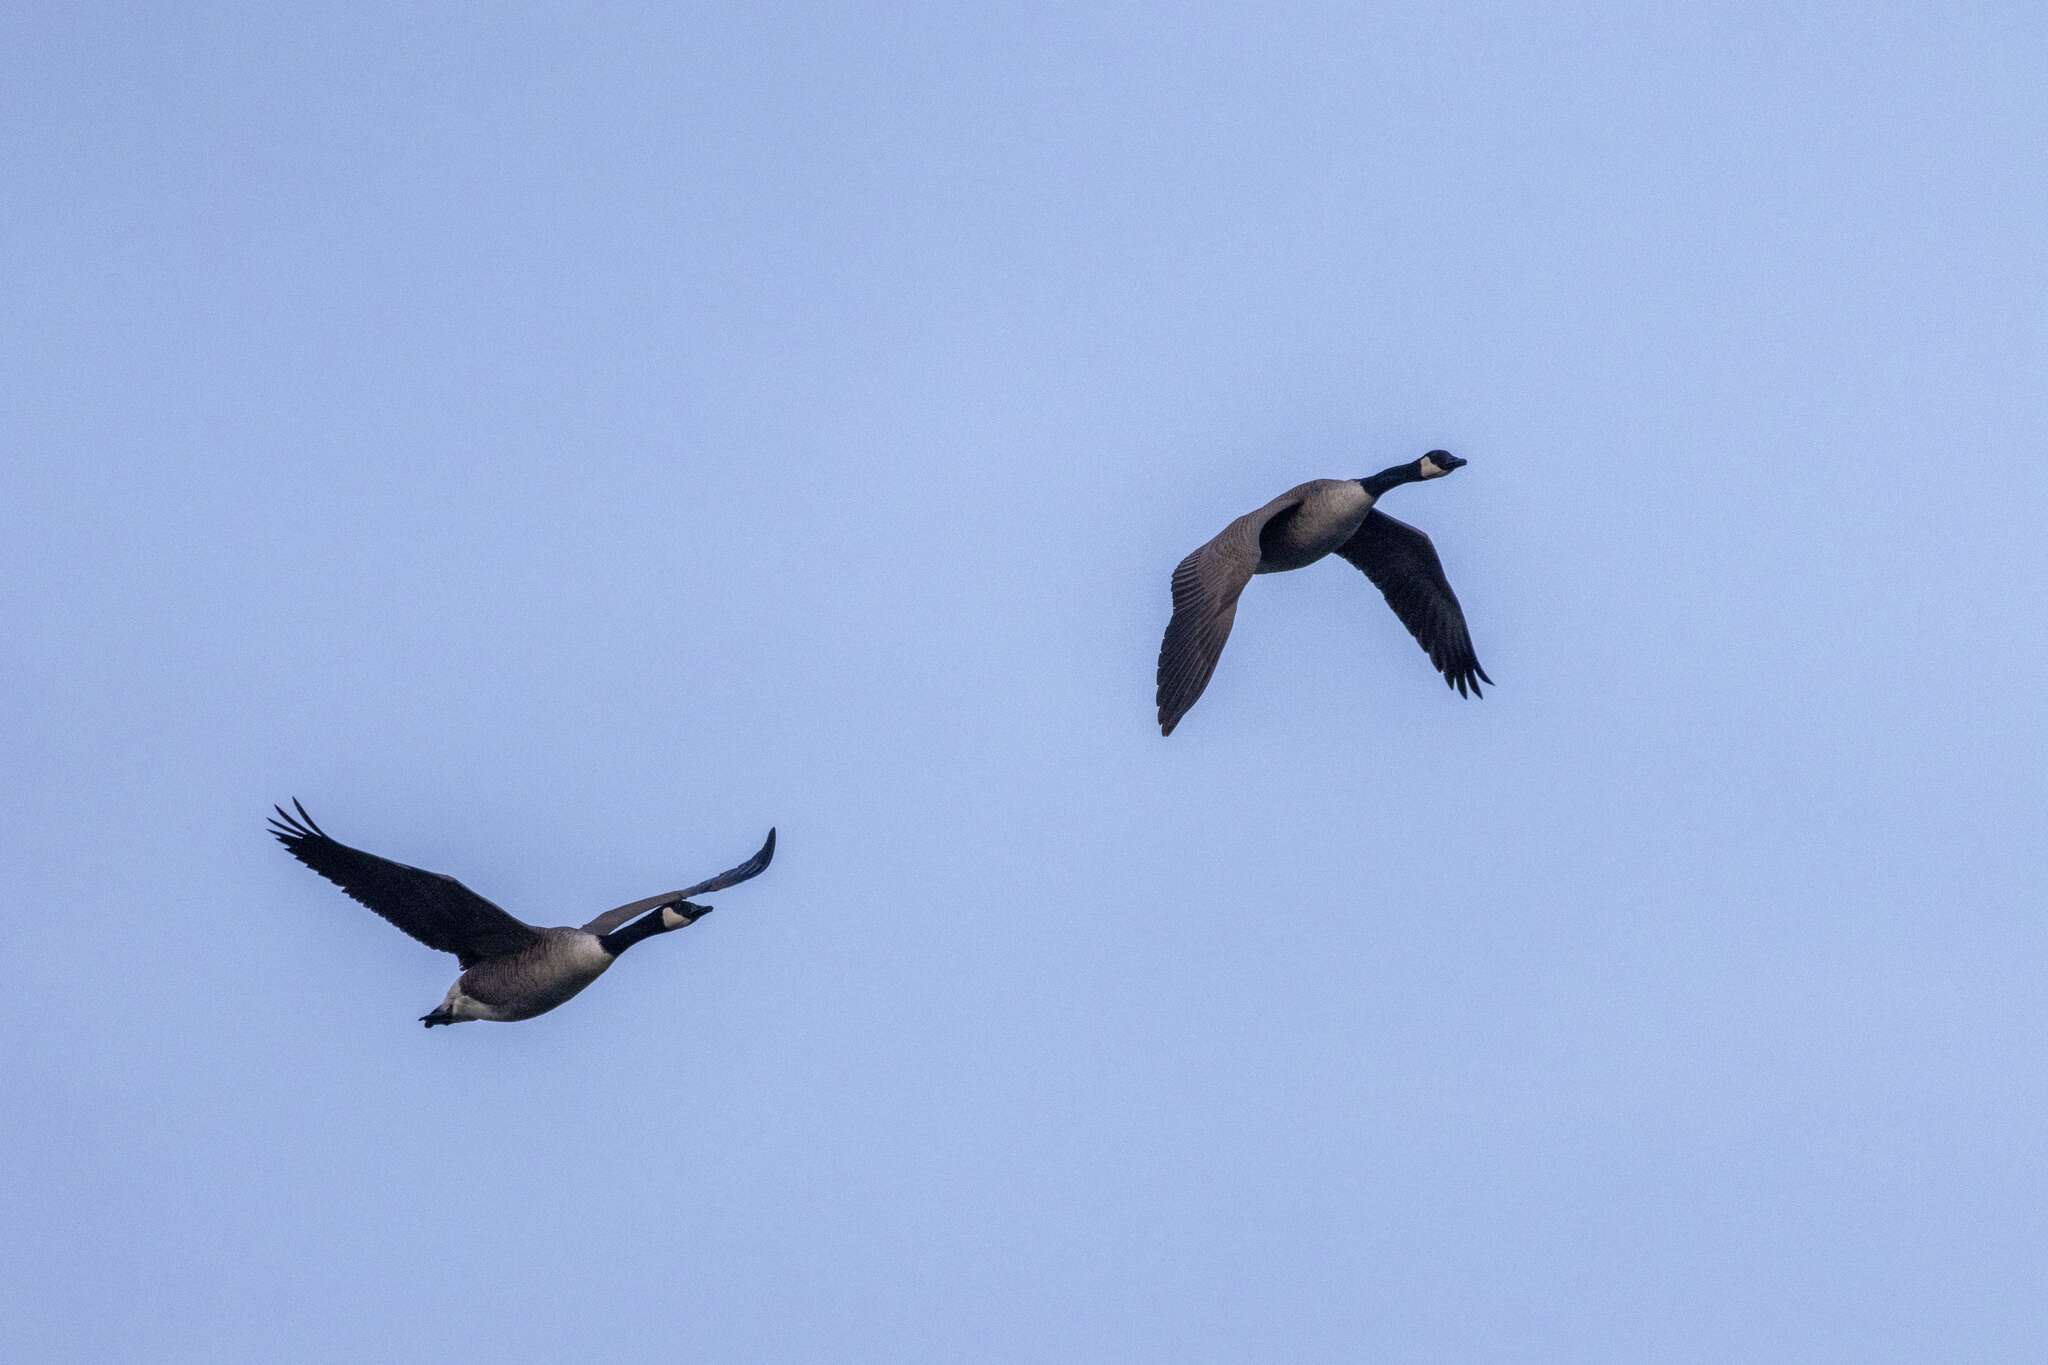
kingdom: Animalia
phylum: Chordata
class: Aves
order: Anseriformes
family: Anatidae
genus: Branta
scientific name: Branta canadensis
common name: Canada goose
